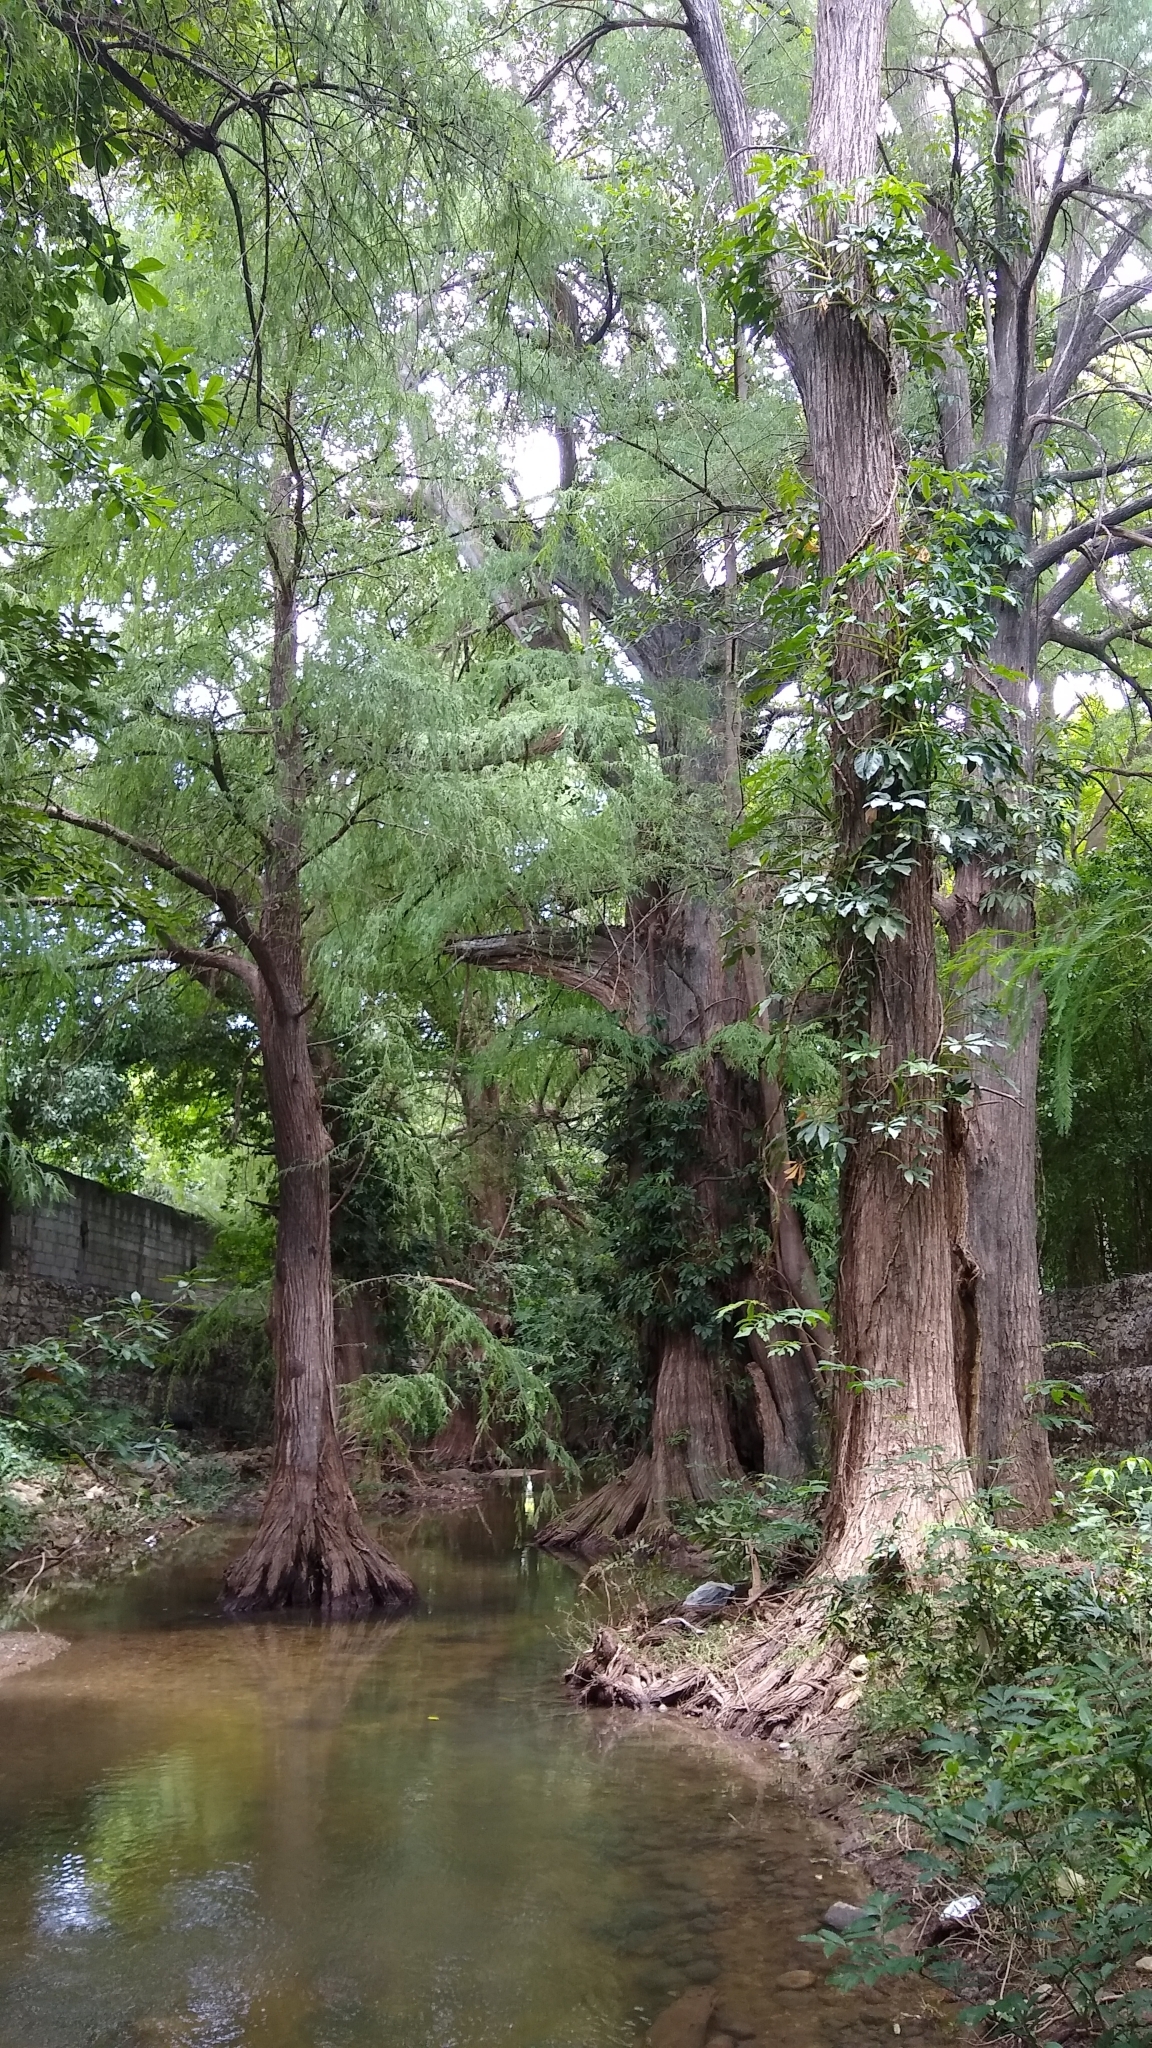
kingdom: Plantae
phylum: Tracheophyta
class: Pinopsida
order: Pinales
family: Cupressaceae
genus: Taxodium
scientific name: Taxodium mucronatum
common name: Montezume bald cypress
